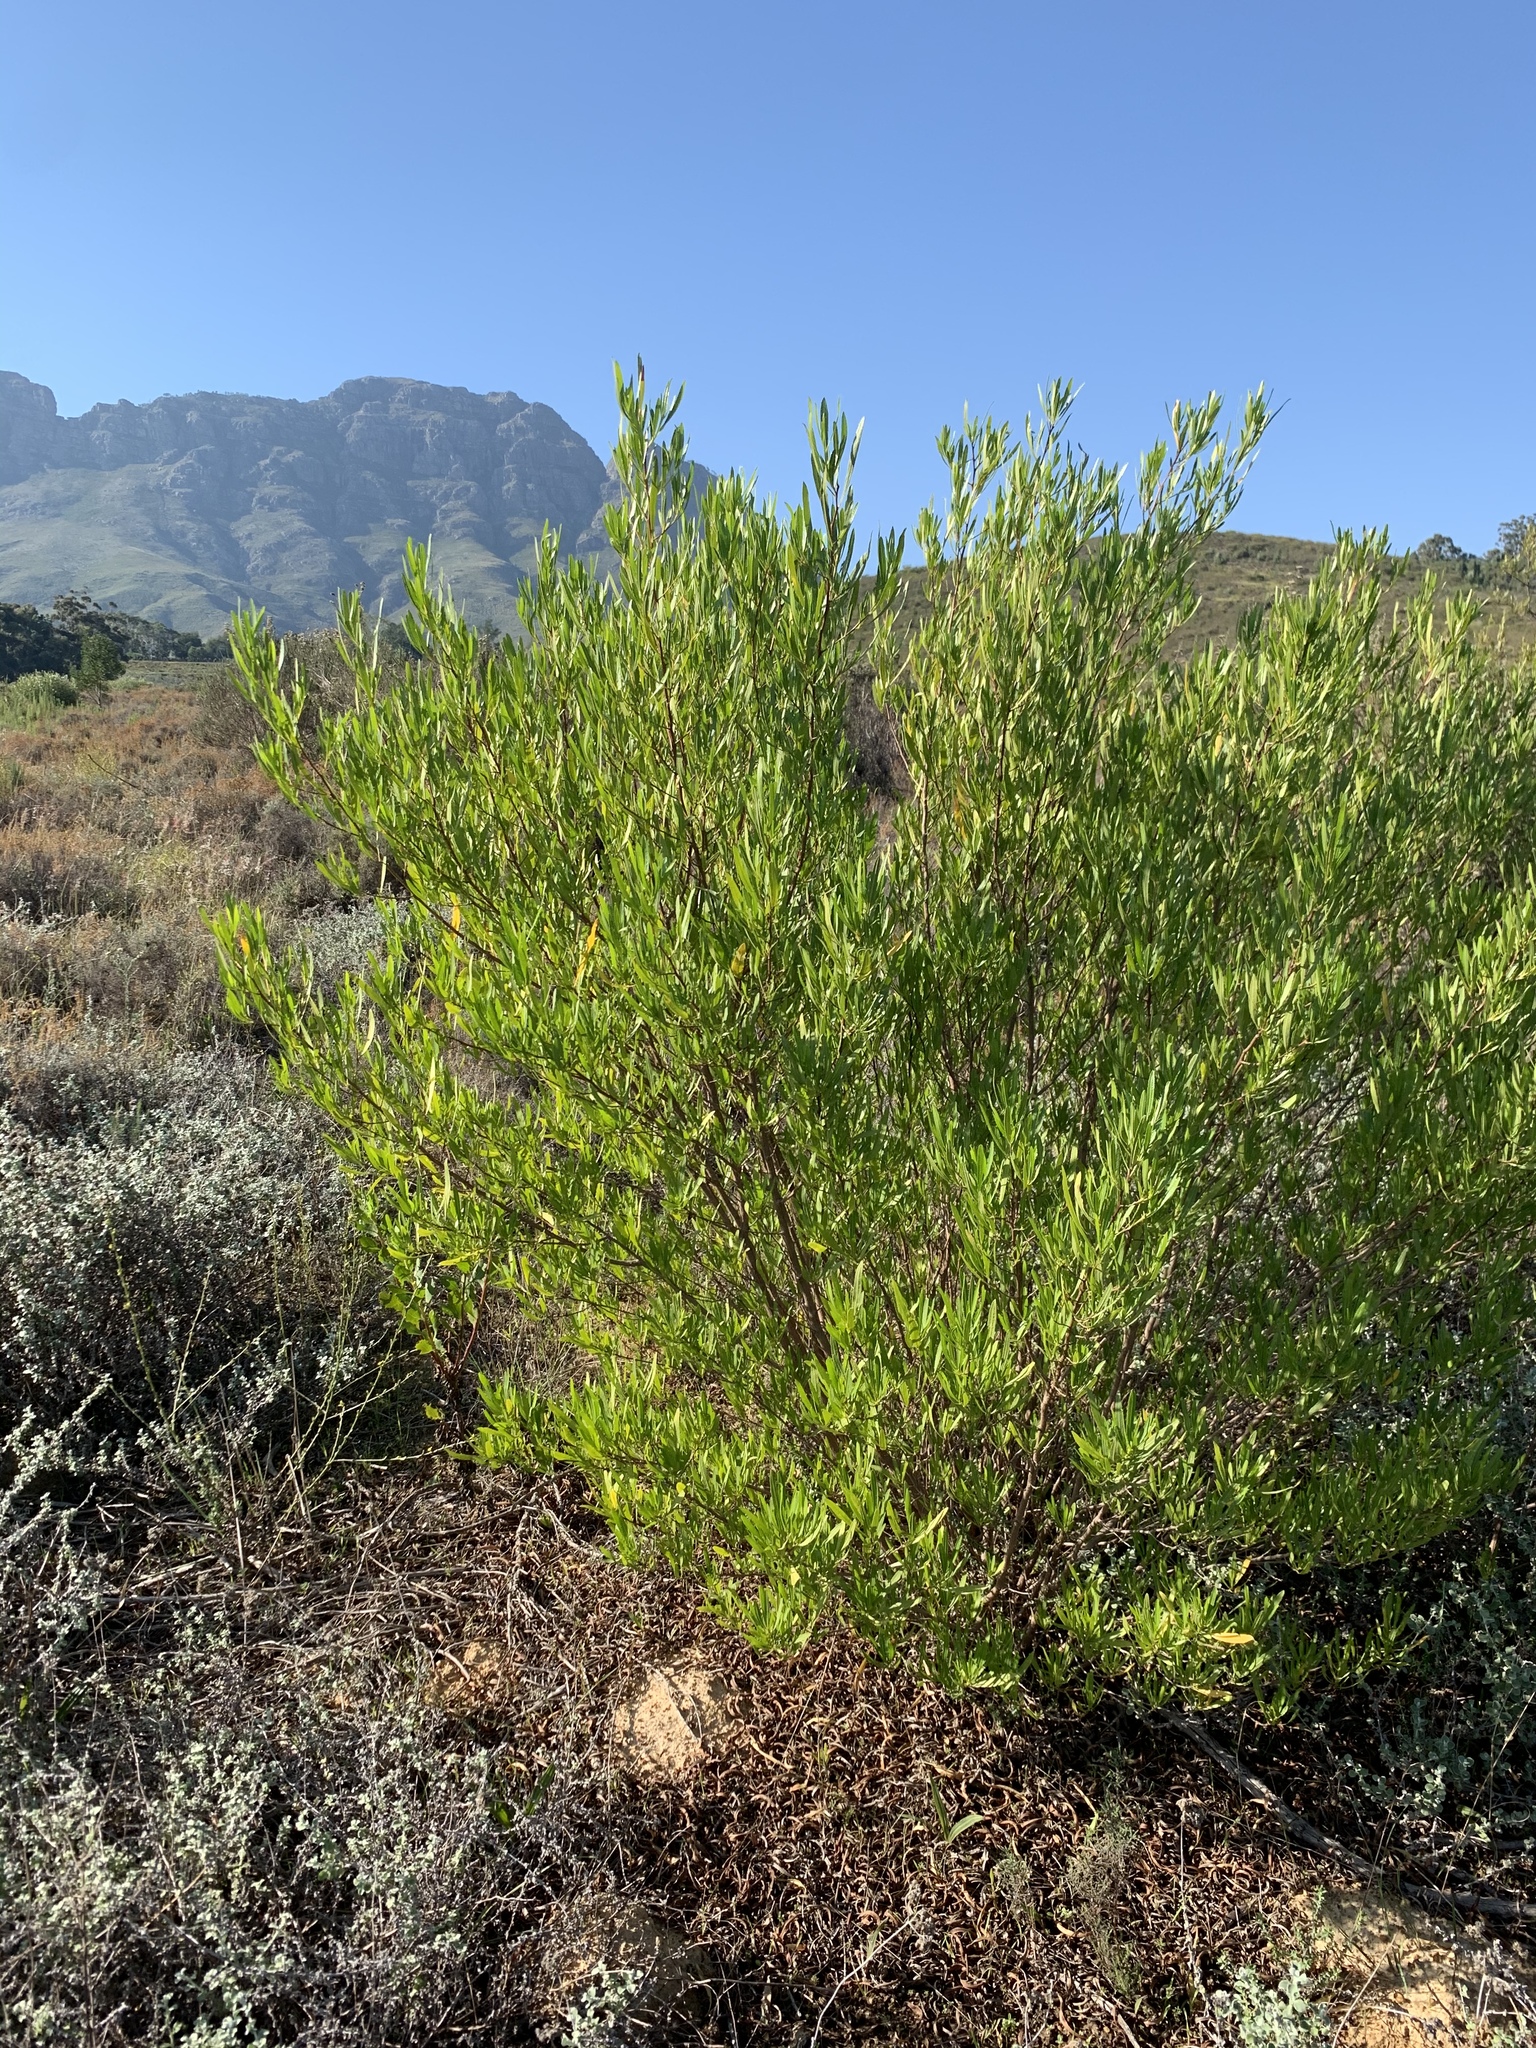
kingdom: Plantae
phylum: Tracheophyta
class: Magnoliopsida
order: Sapindales
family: Sapindaceae
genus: Dodonaea
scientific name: Dodonaea viscosa
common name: Hopbush
